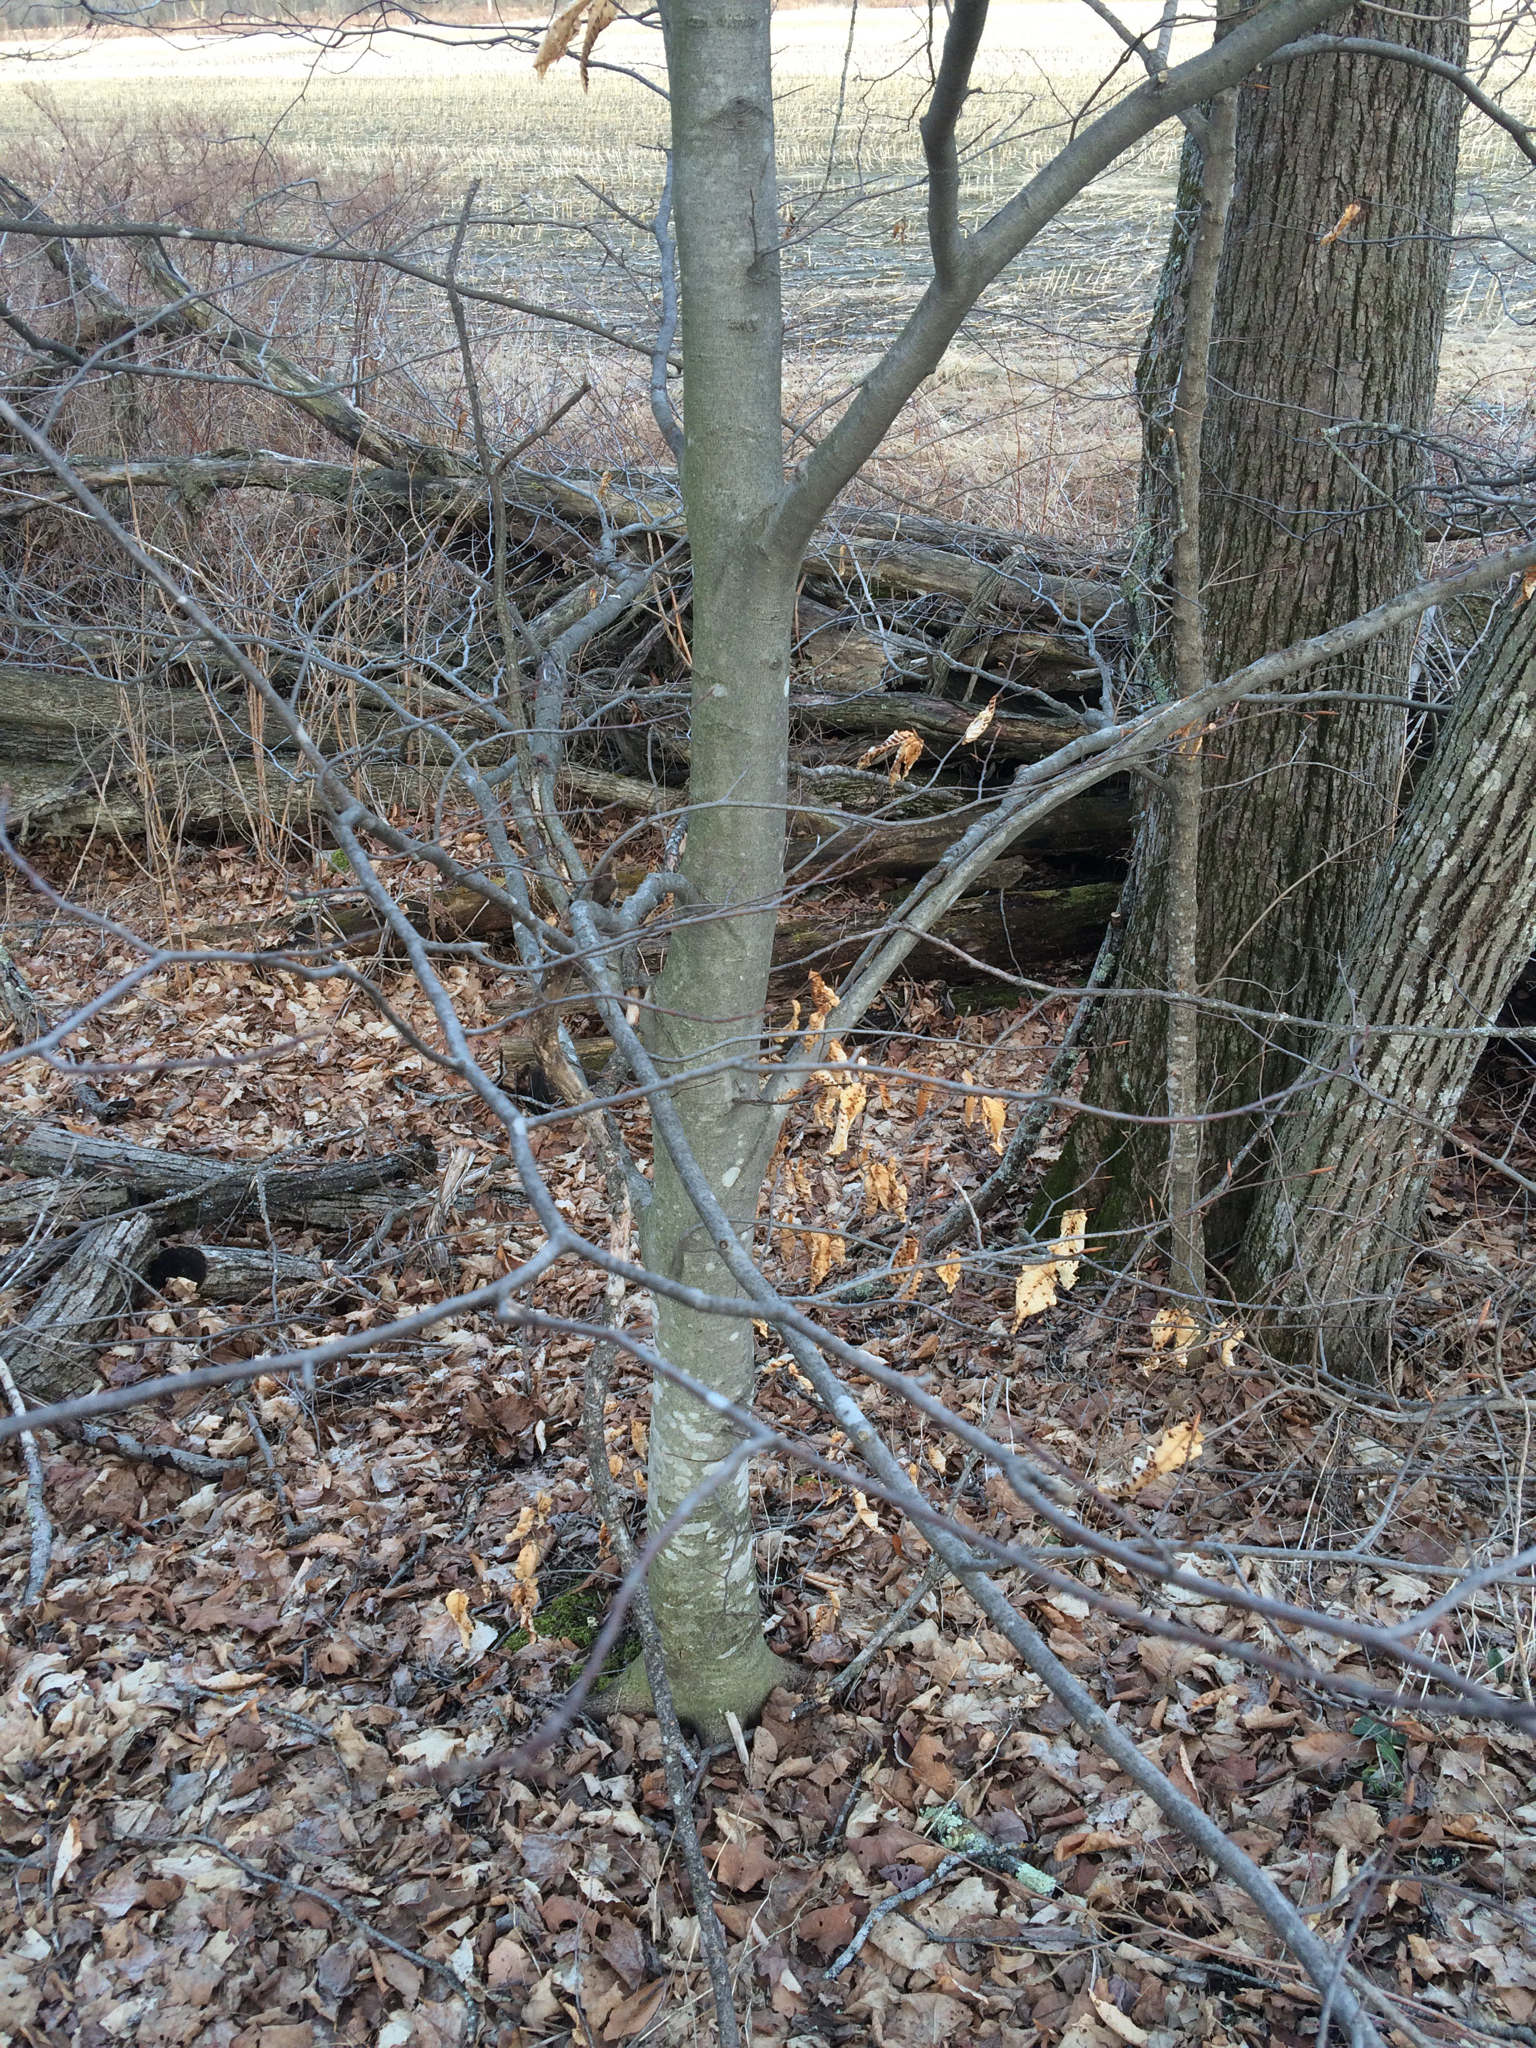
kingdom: Plantae
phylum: Tracheophyta
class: Magnoliopsida
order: Fagales
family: Fagaceae
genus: Fagus
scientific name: Fagus grandifolia
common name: American beech
